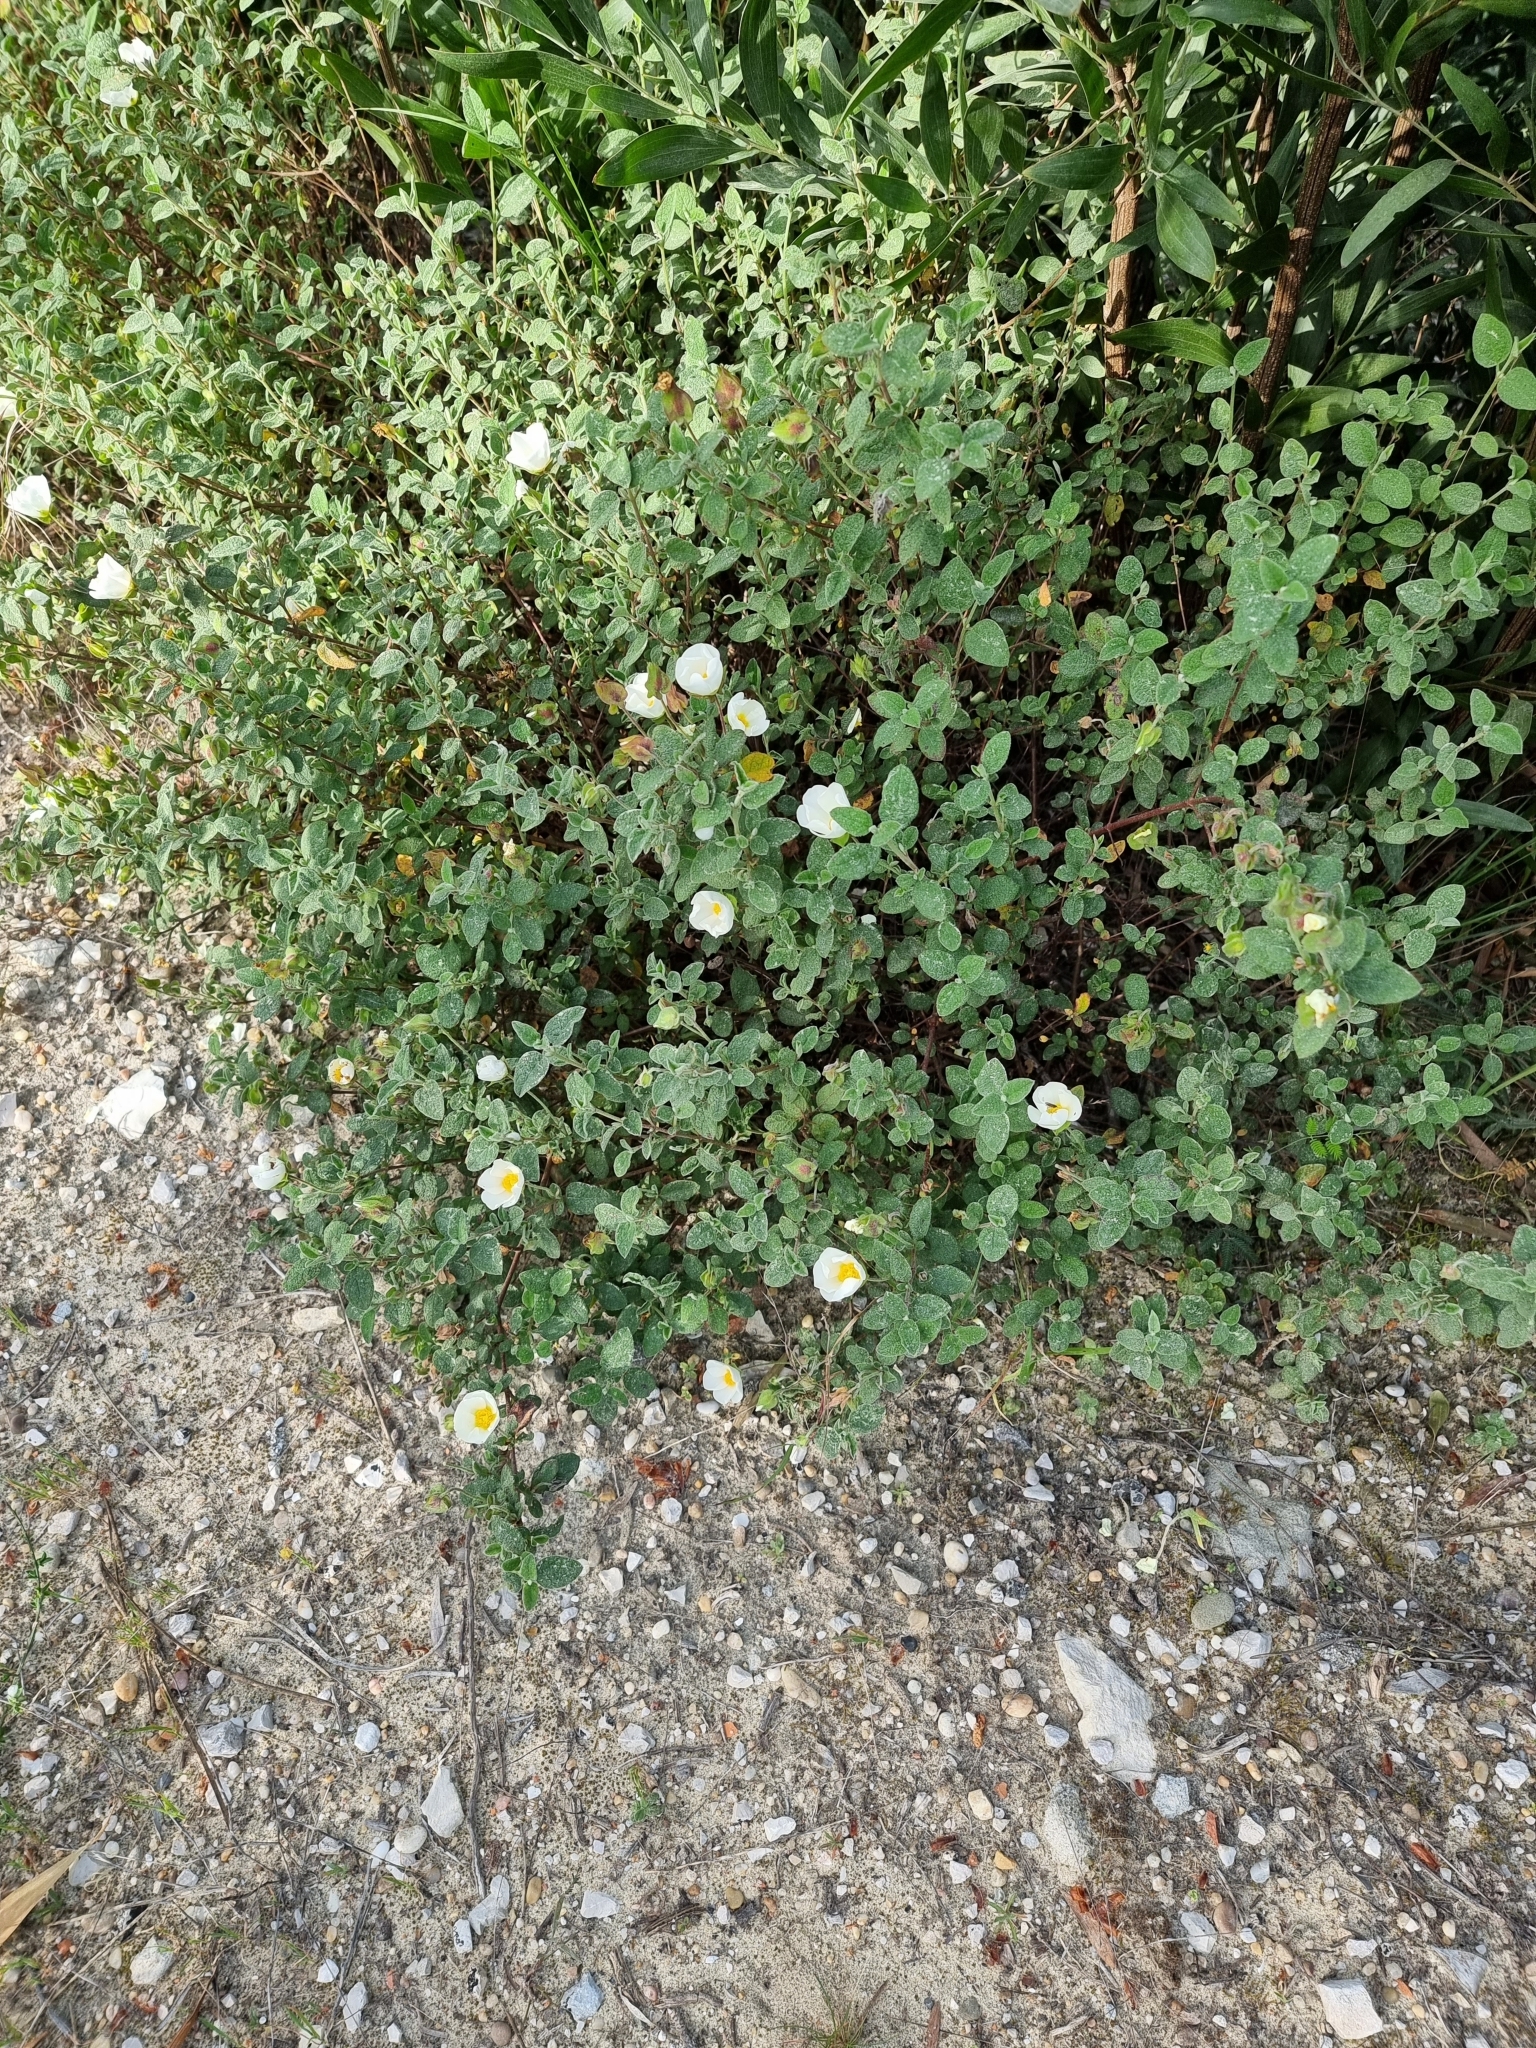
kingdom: Plantae
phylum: Tracheophyta
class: Magnoliopsida
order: Malvales
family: Cistaceae
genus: Cistus
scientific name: Cistus salviifolius
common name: Salvia cistus
